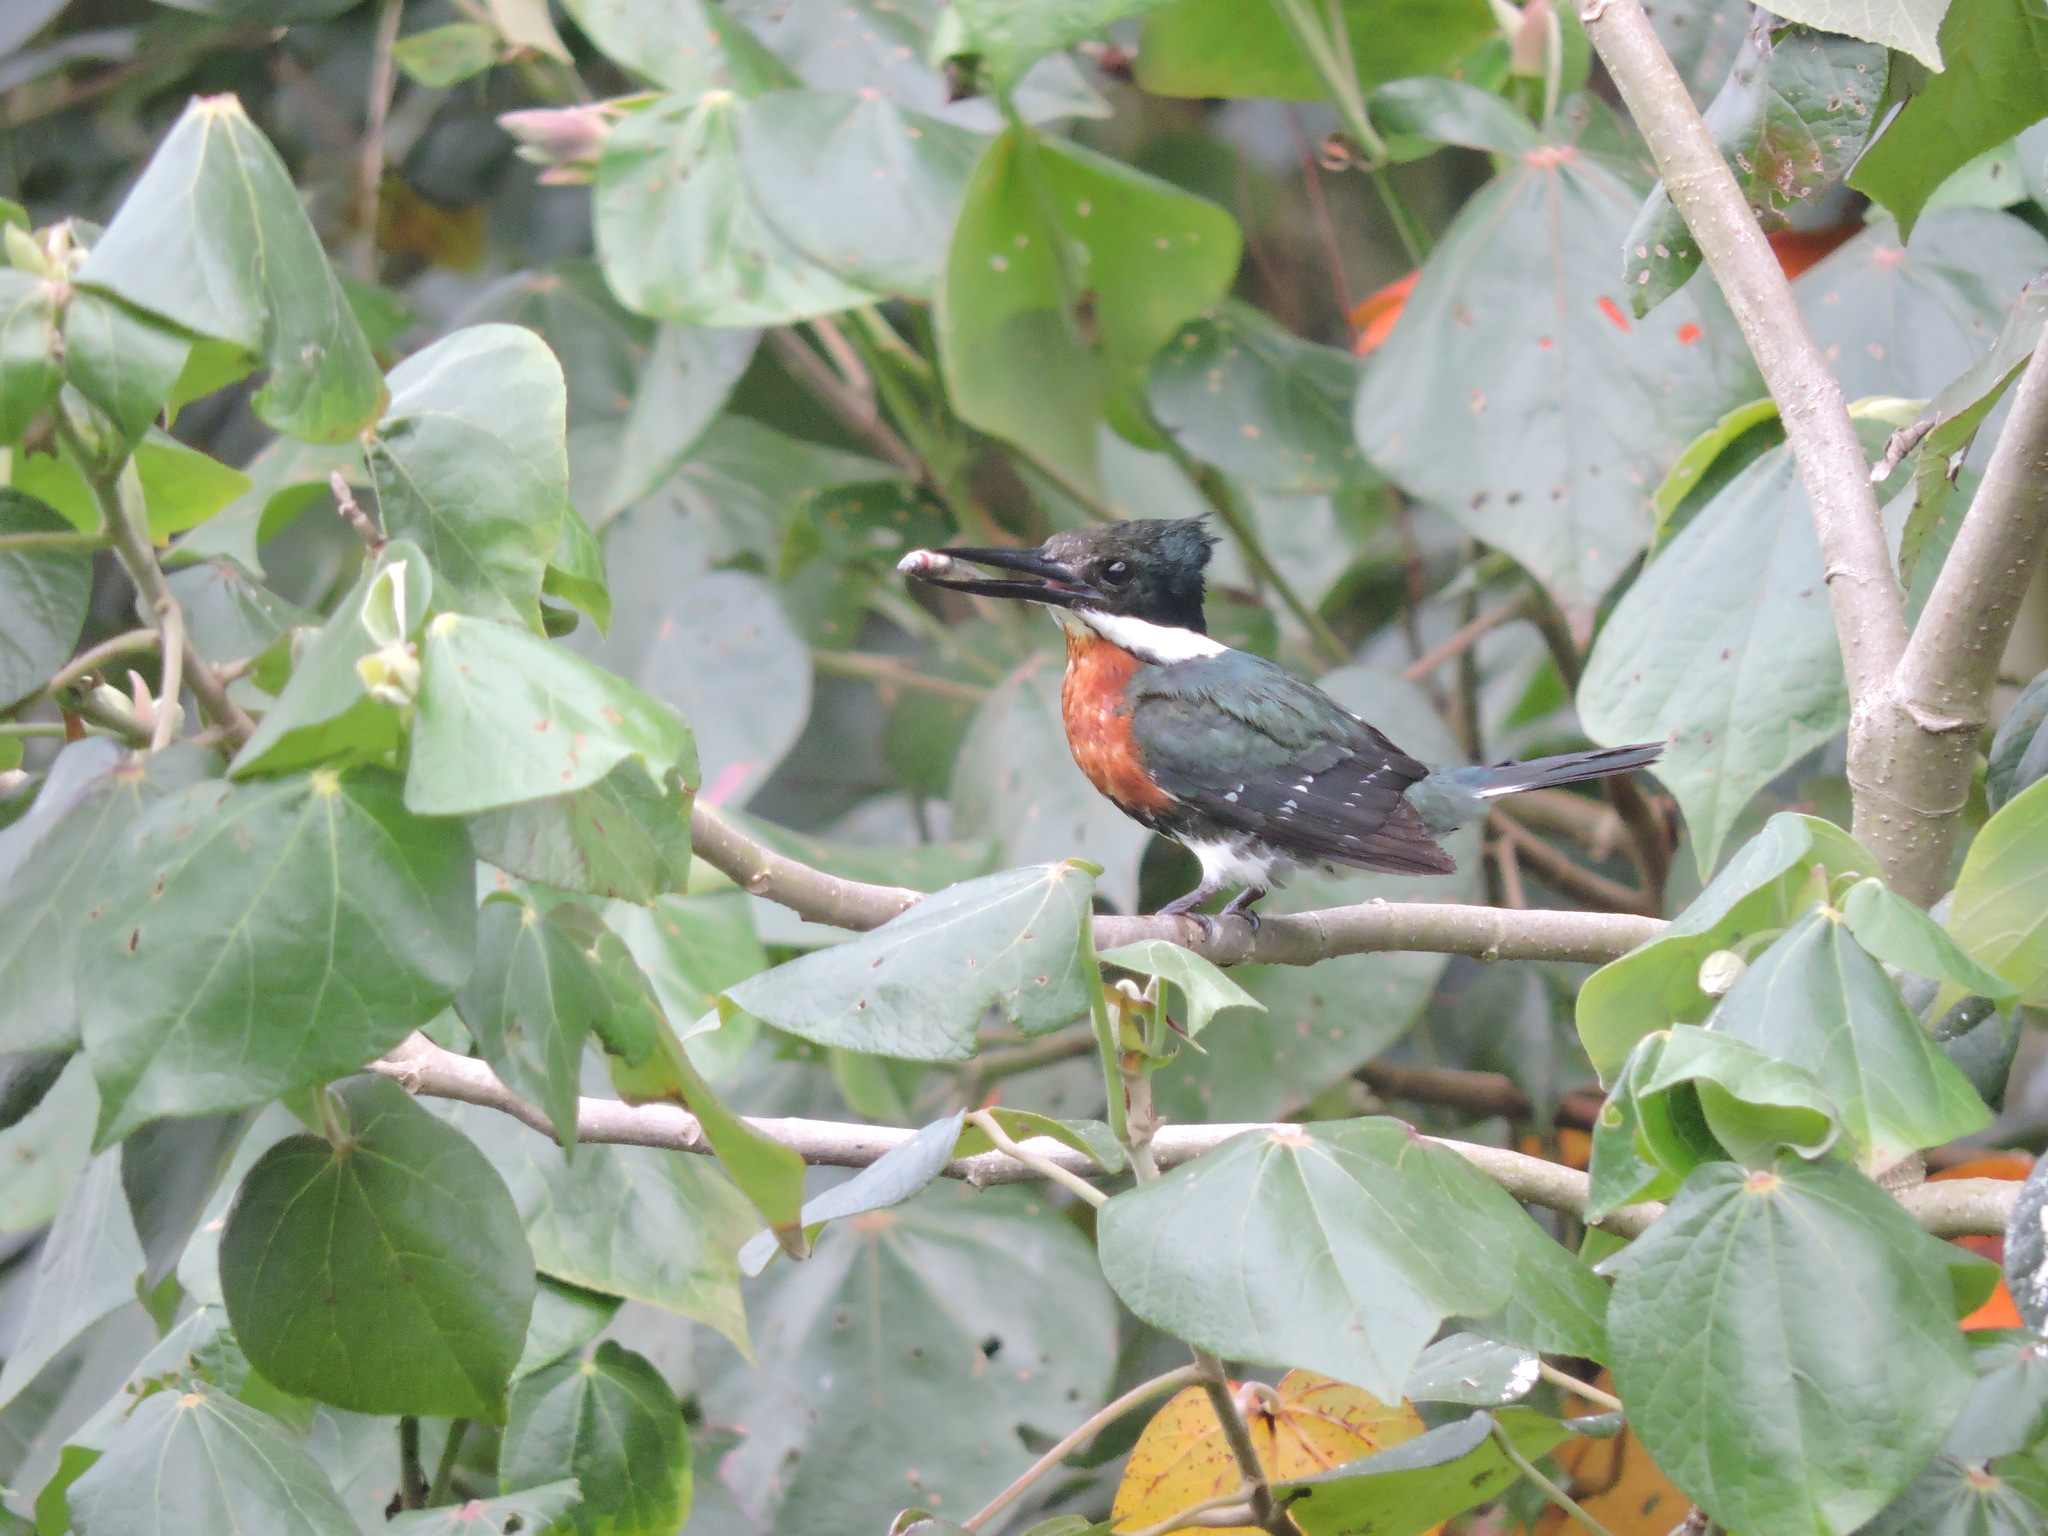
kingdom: Animalia
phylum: Chordata
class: Aves
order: Coraciiformes
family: Alcedinidae
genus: Chloroceryle
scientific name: Chloroceryle americana
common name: Green kingfisher
